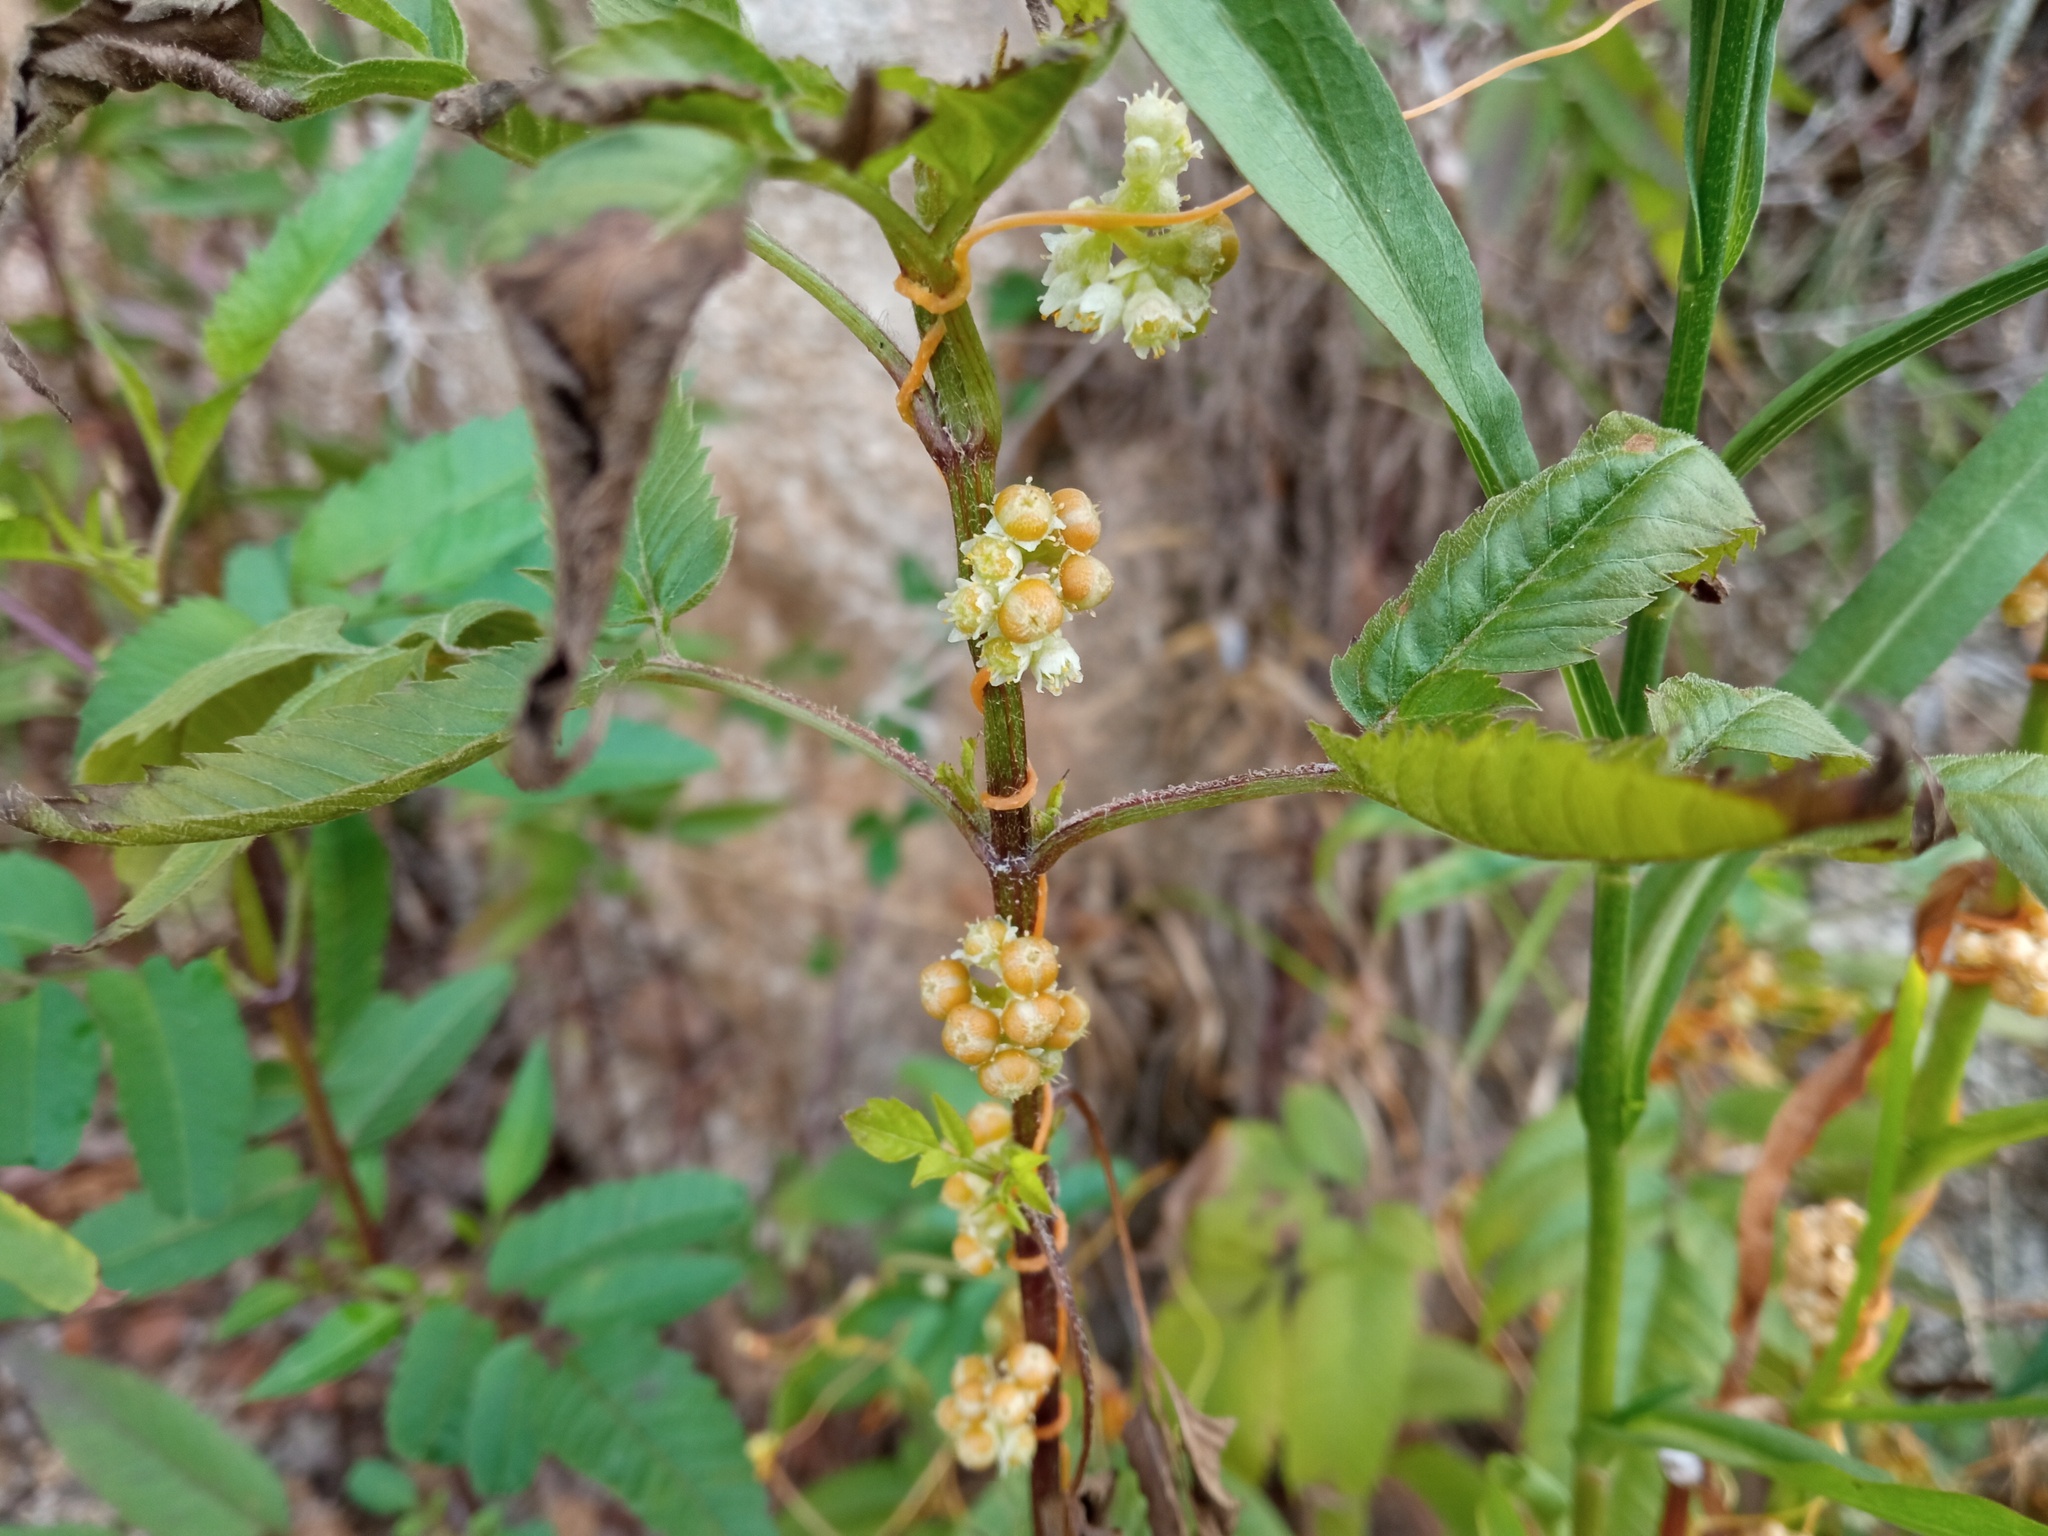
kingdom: Plantae
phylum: Tracheophyta
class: Magnoliopsida
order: Solanales
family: Convolvulaceae
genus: Cuscuta
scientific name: Cuscuta campestris
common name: Yellow dodder
